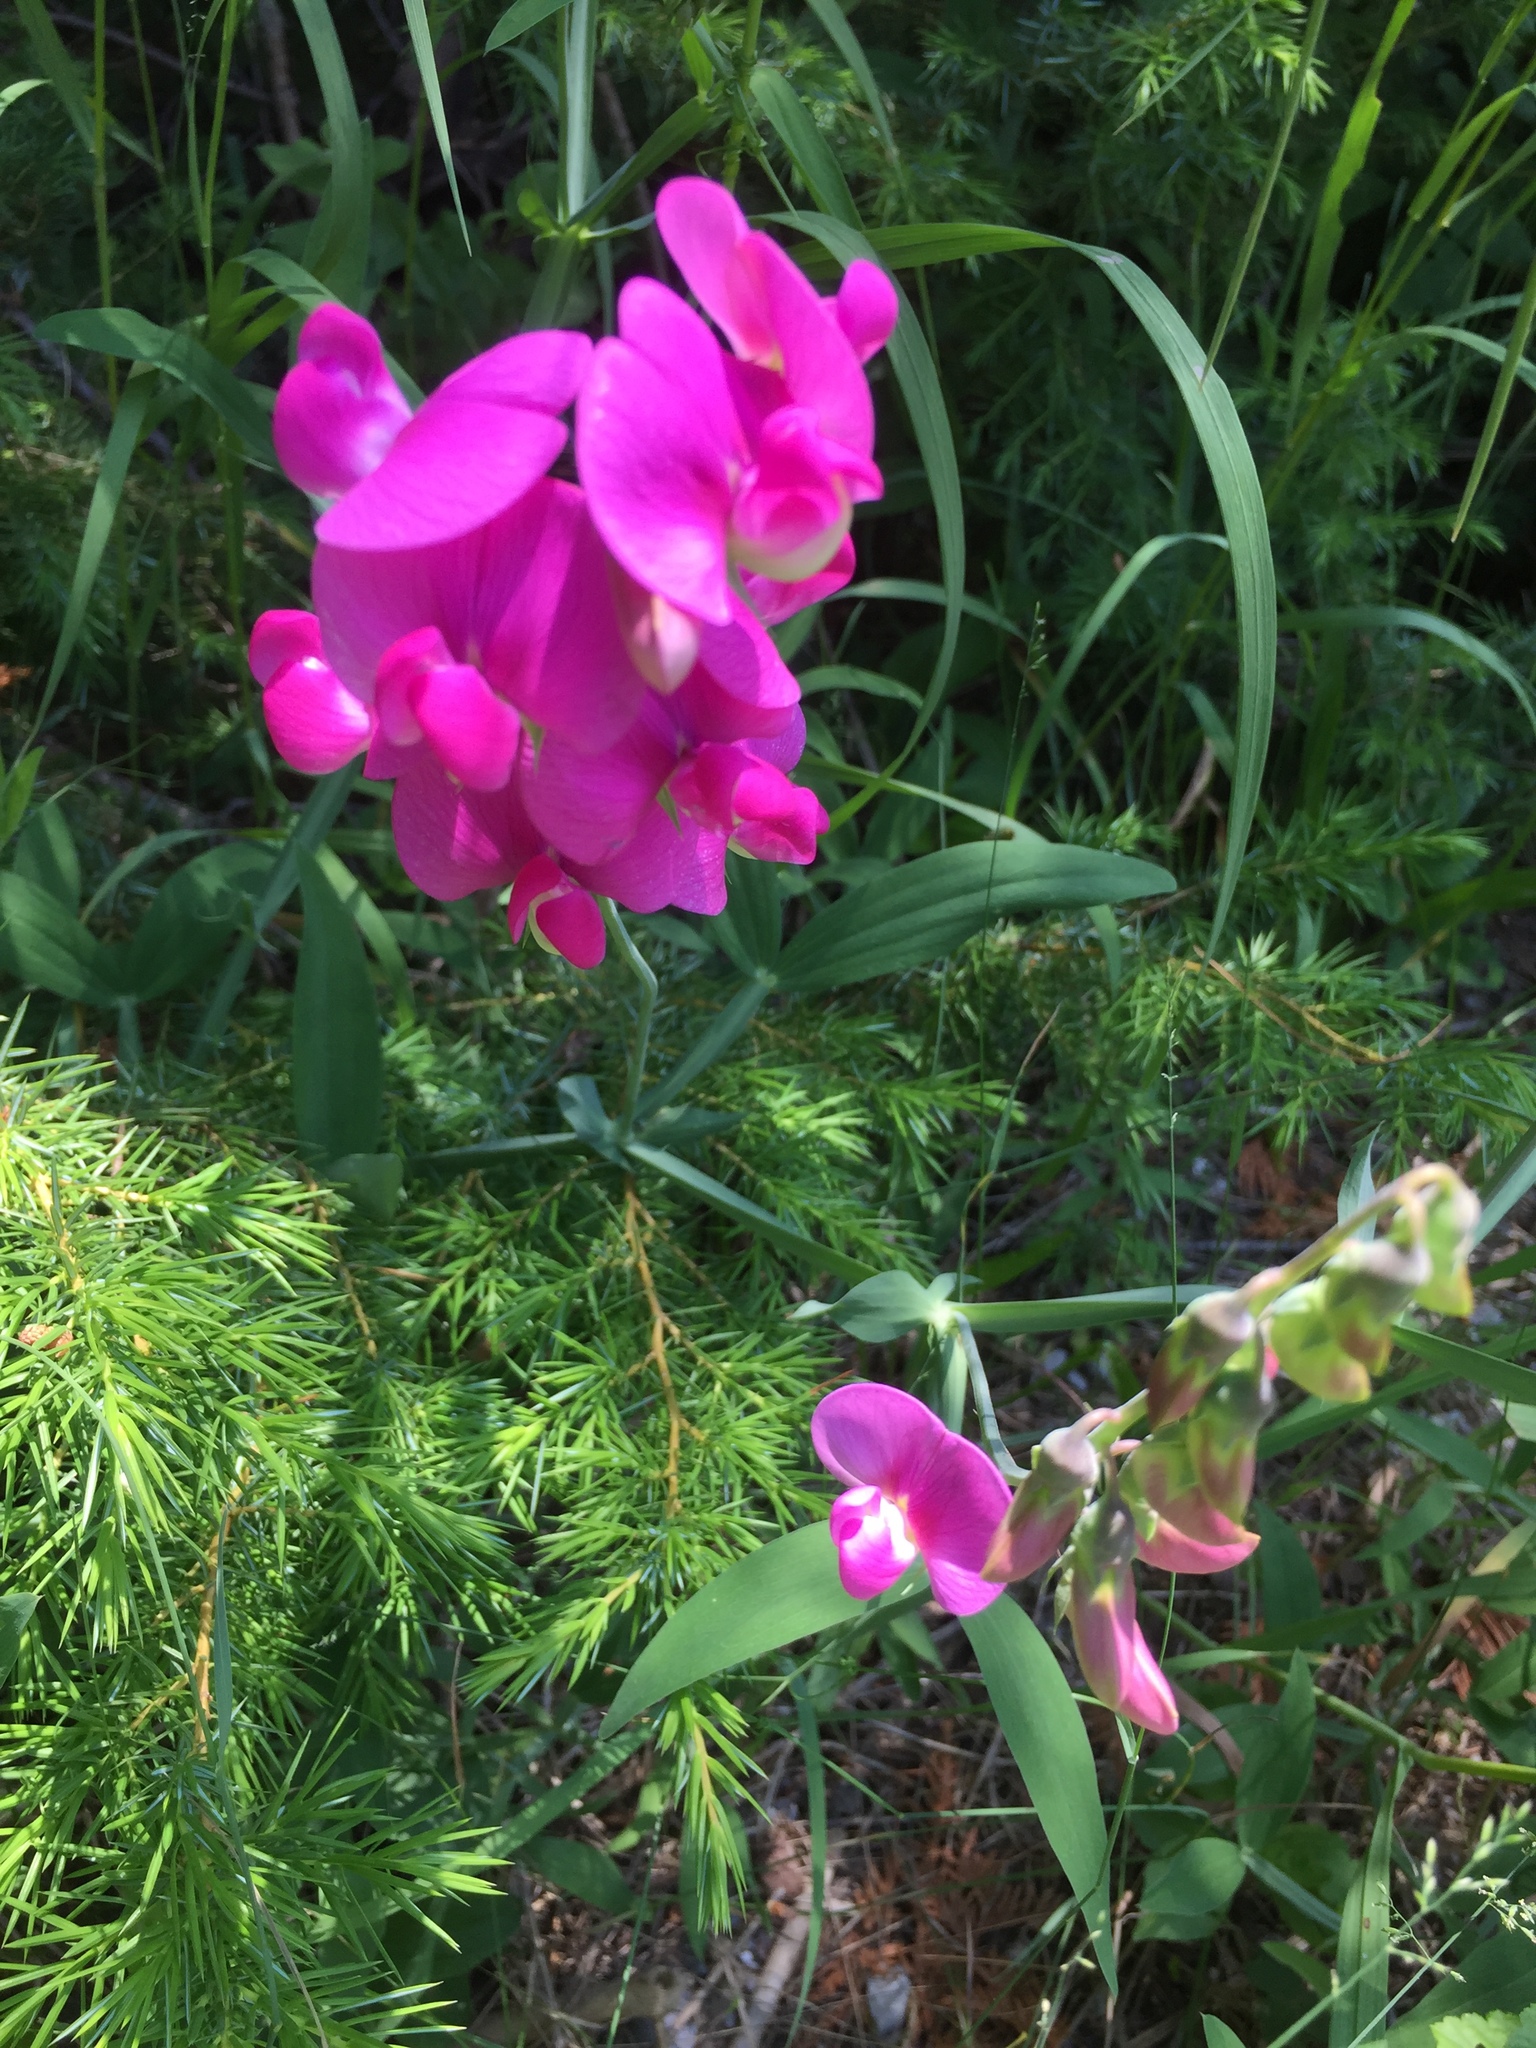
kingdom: Plantae
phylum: Tracheophyta
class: Magnoliopsida
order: Fabales
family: Fabaceae
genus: Lathyrus
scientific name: Lathyrus latifolius
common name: Perennial pea
